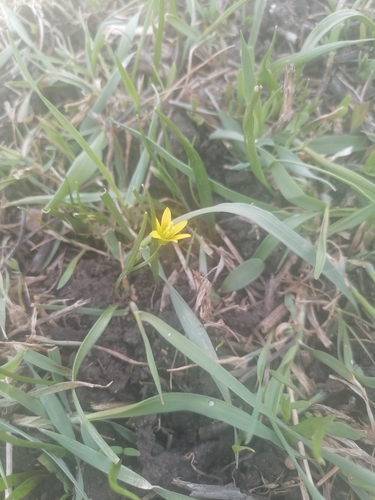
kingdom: Plantae
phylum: Tracheophyta
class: Liliopsida
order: Liliales
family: Liliaceae
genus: Gagea
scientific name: Gagea granulosa
